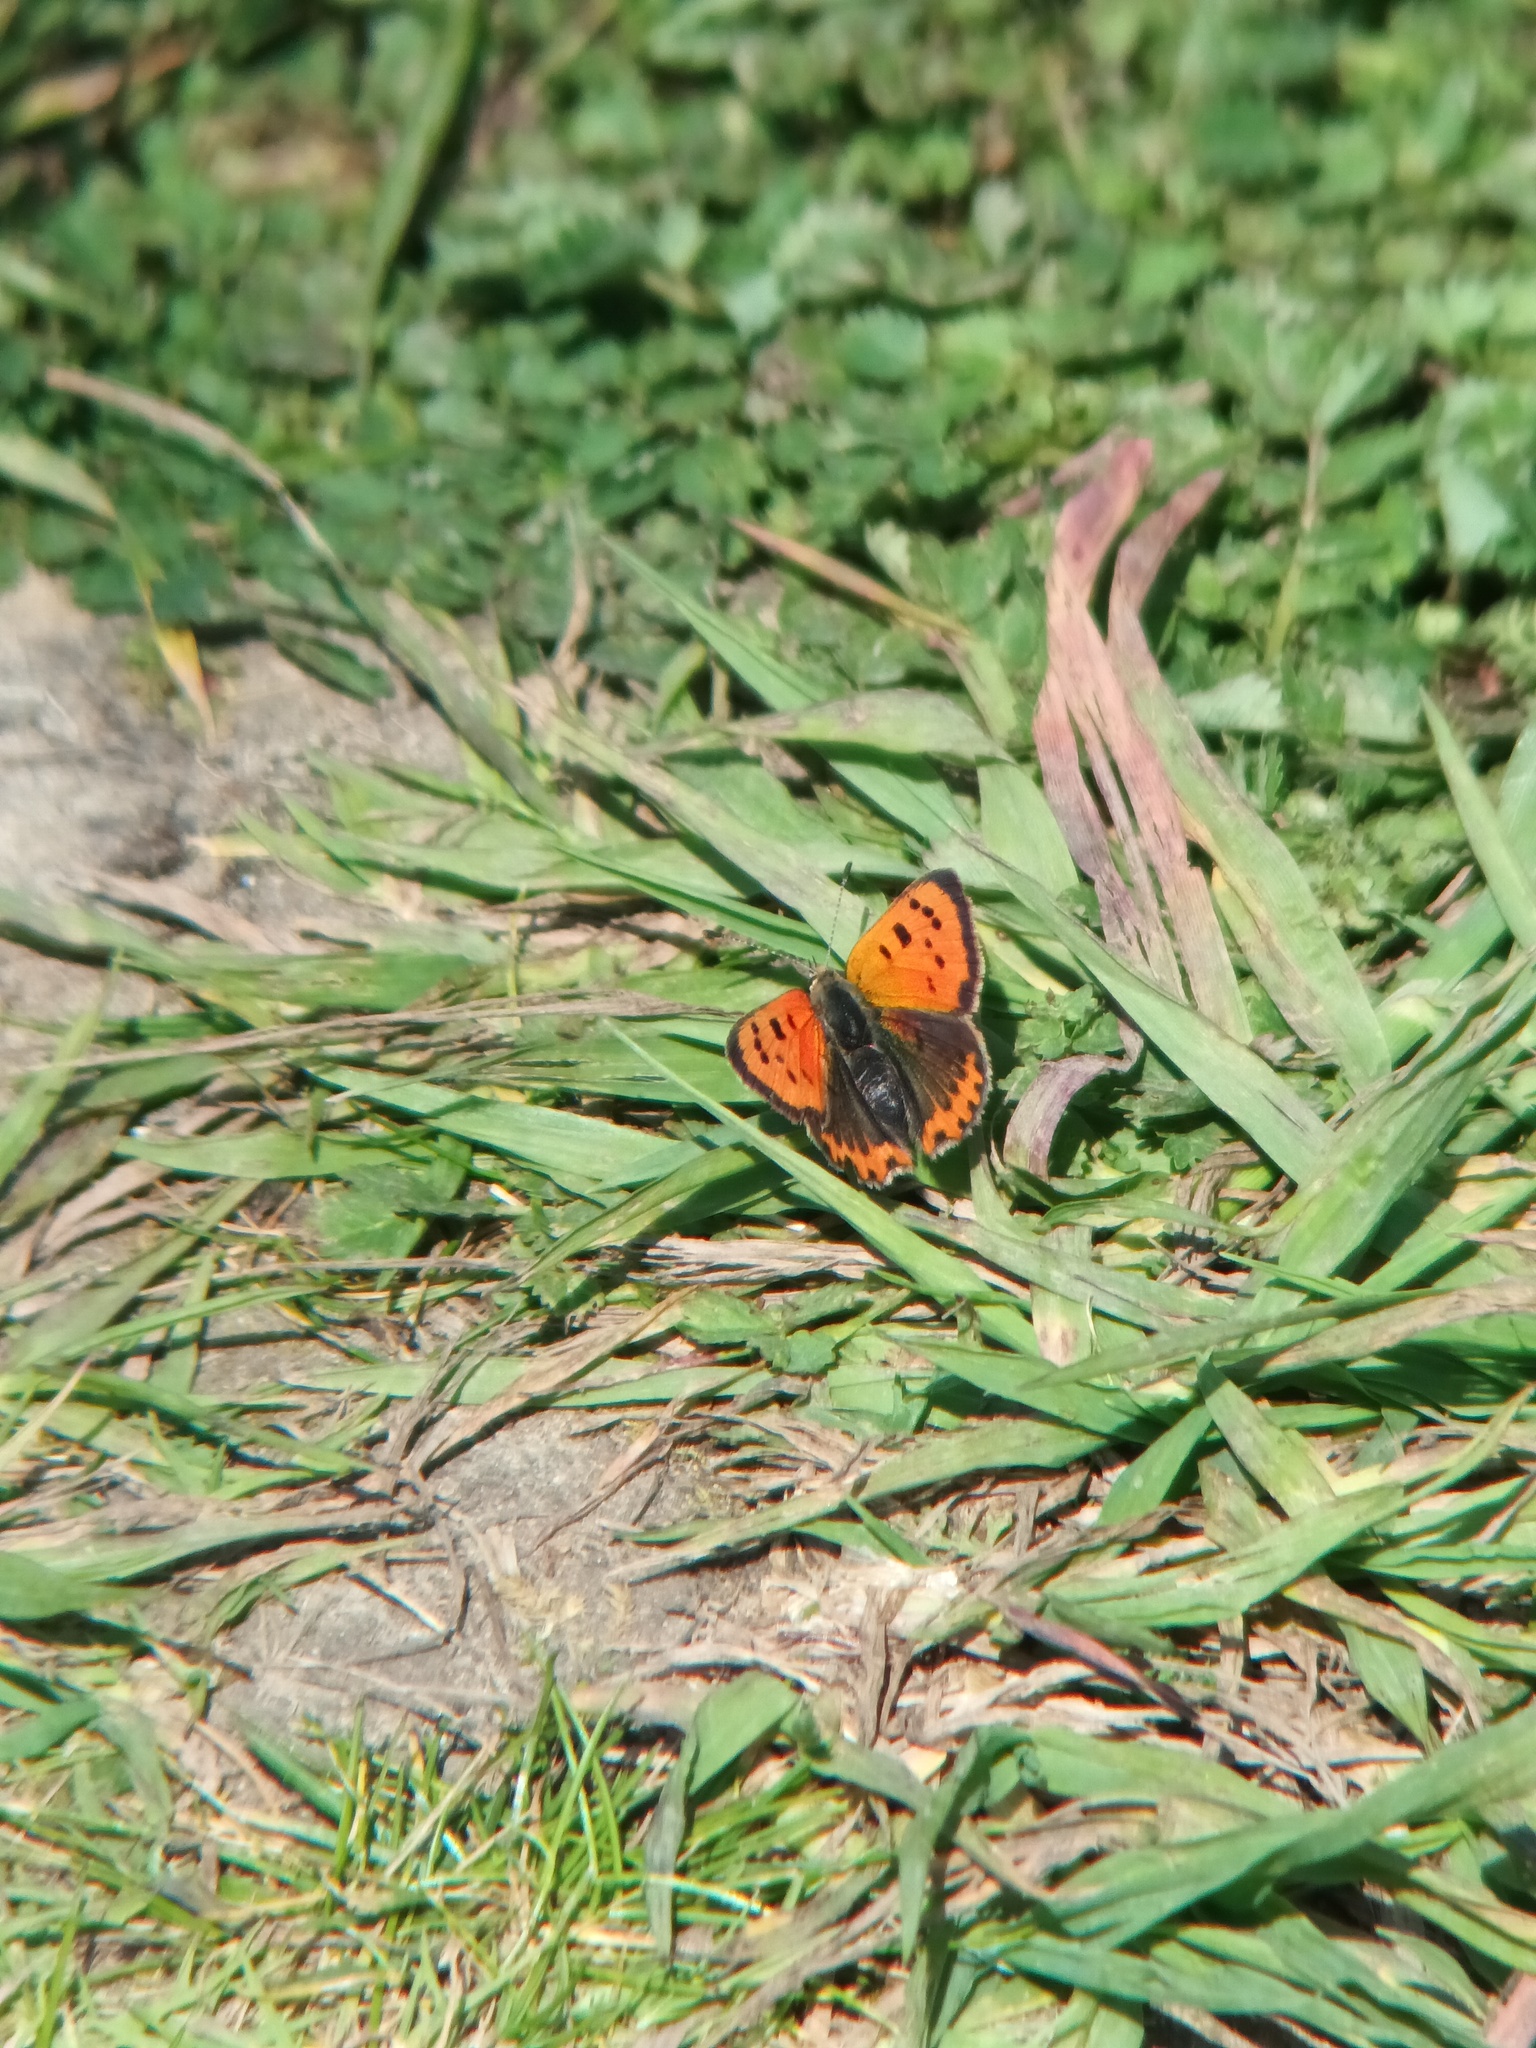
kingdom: Animalia
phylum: Arthropoda
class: Insecta
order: Lepidoptera
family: Lycaenidae
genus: Lycaena
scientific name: Lycaena phlaeas
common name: Small copper
